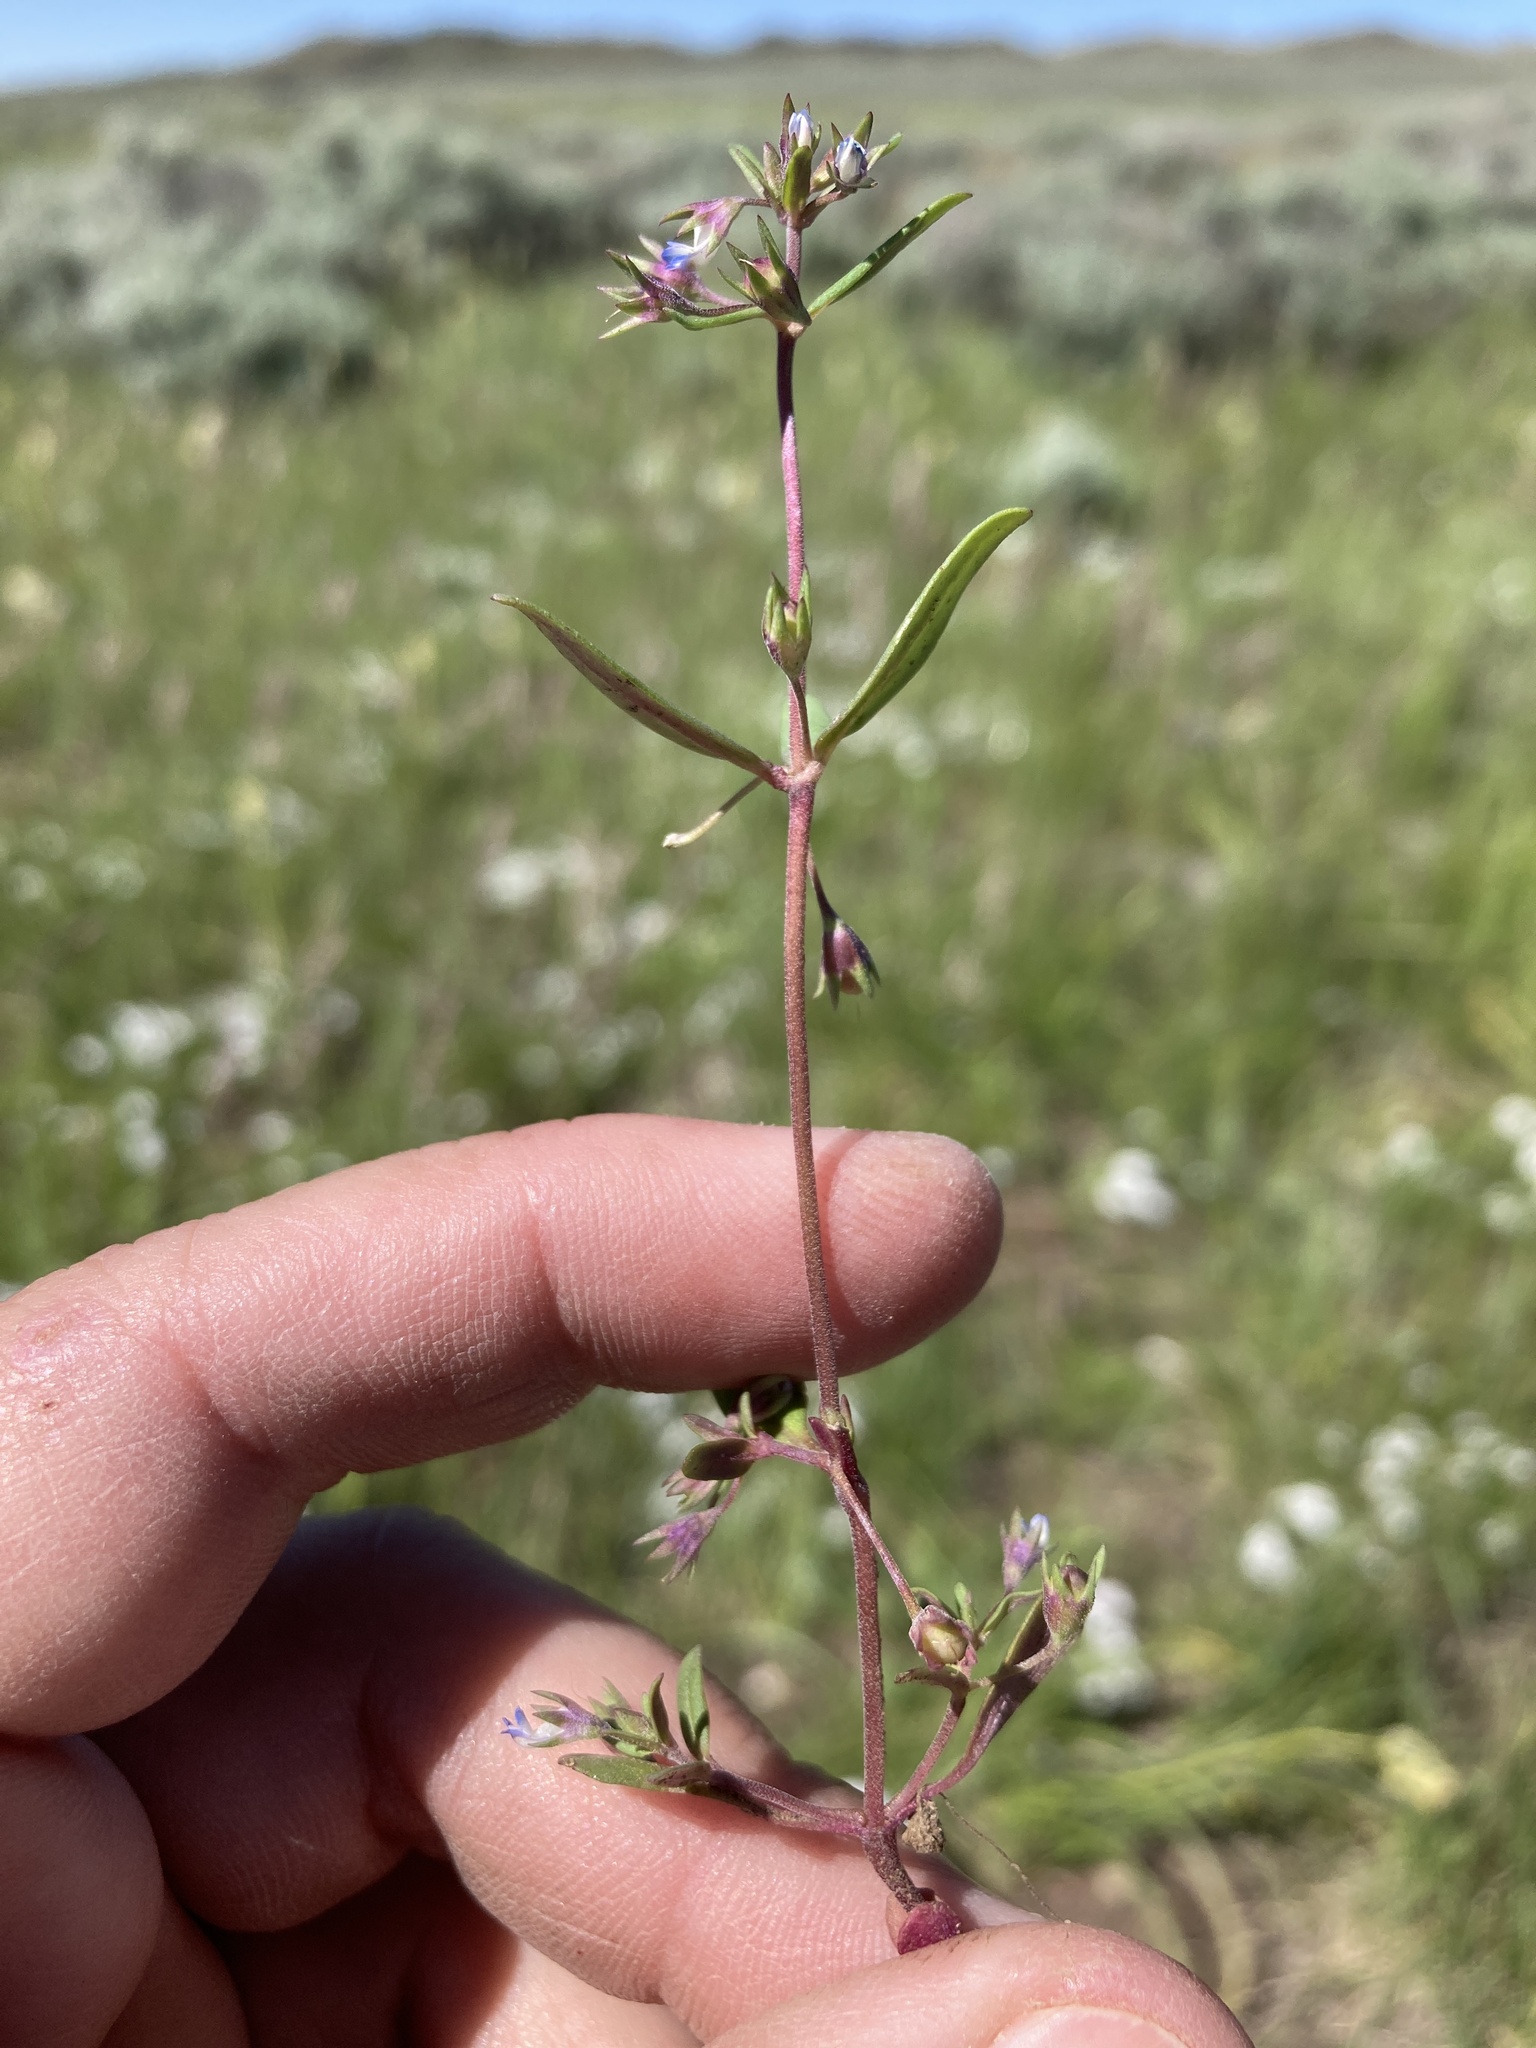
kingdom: Plantae
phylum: Tracheophyta
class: Magnoliopsida
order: Lamiales
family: Plantaginaceae
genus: Collinsia
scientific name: Collinsia parviflora
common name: Blue-lips
